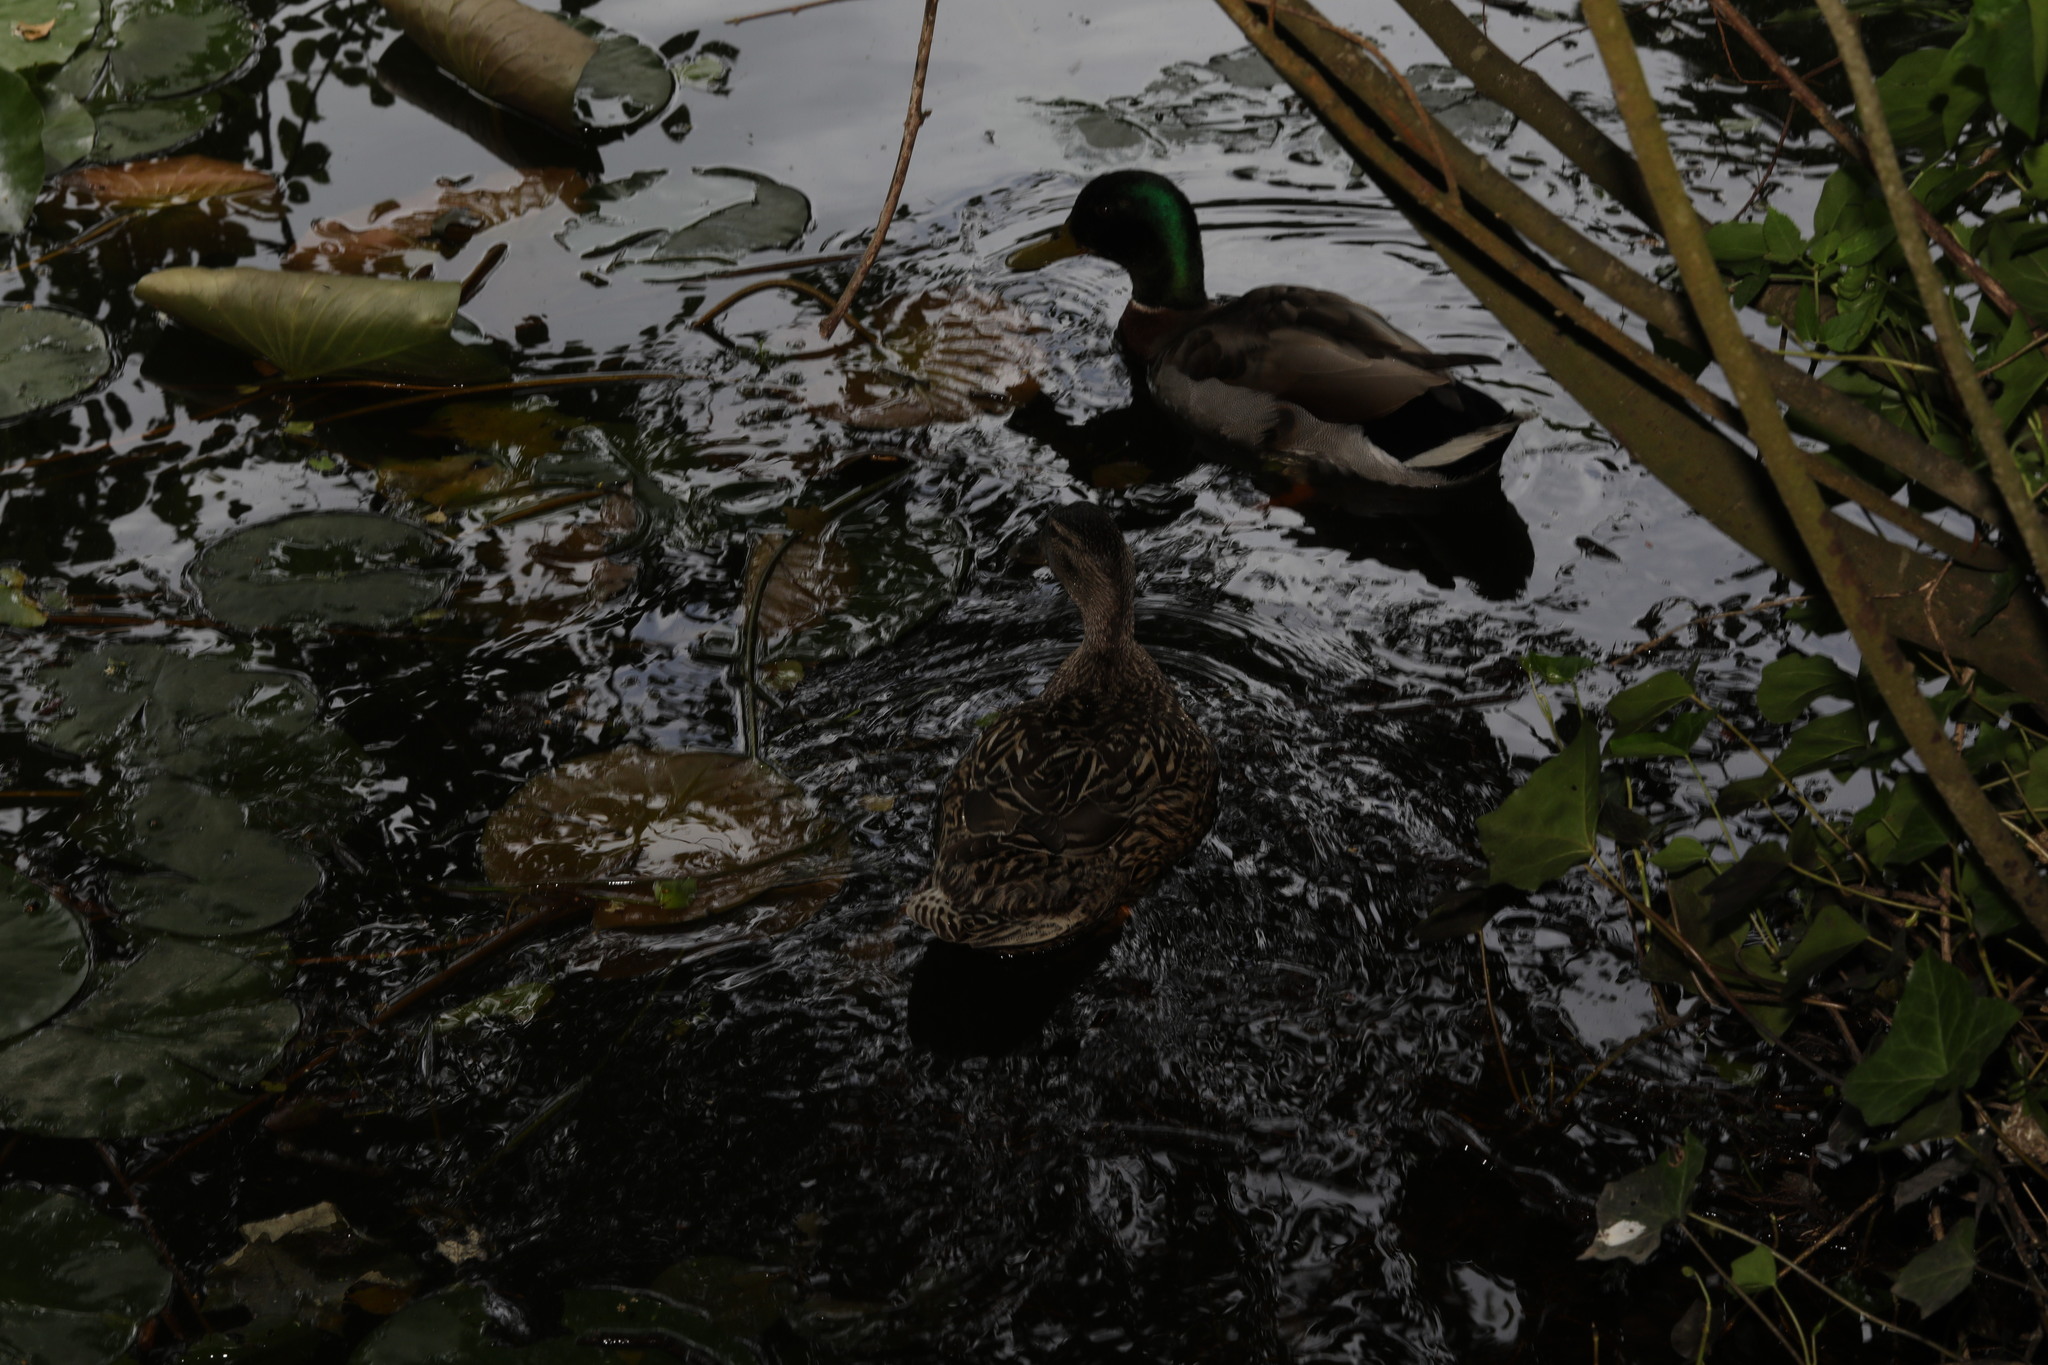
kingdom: Animalia
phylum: Chordata
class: Aves
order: Anseriformes
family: Anatidae
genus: Anas
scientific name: Anas platyrhynchos
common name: Mallard
